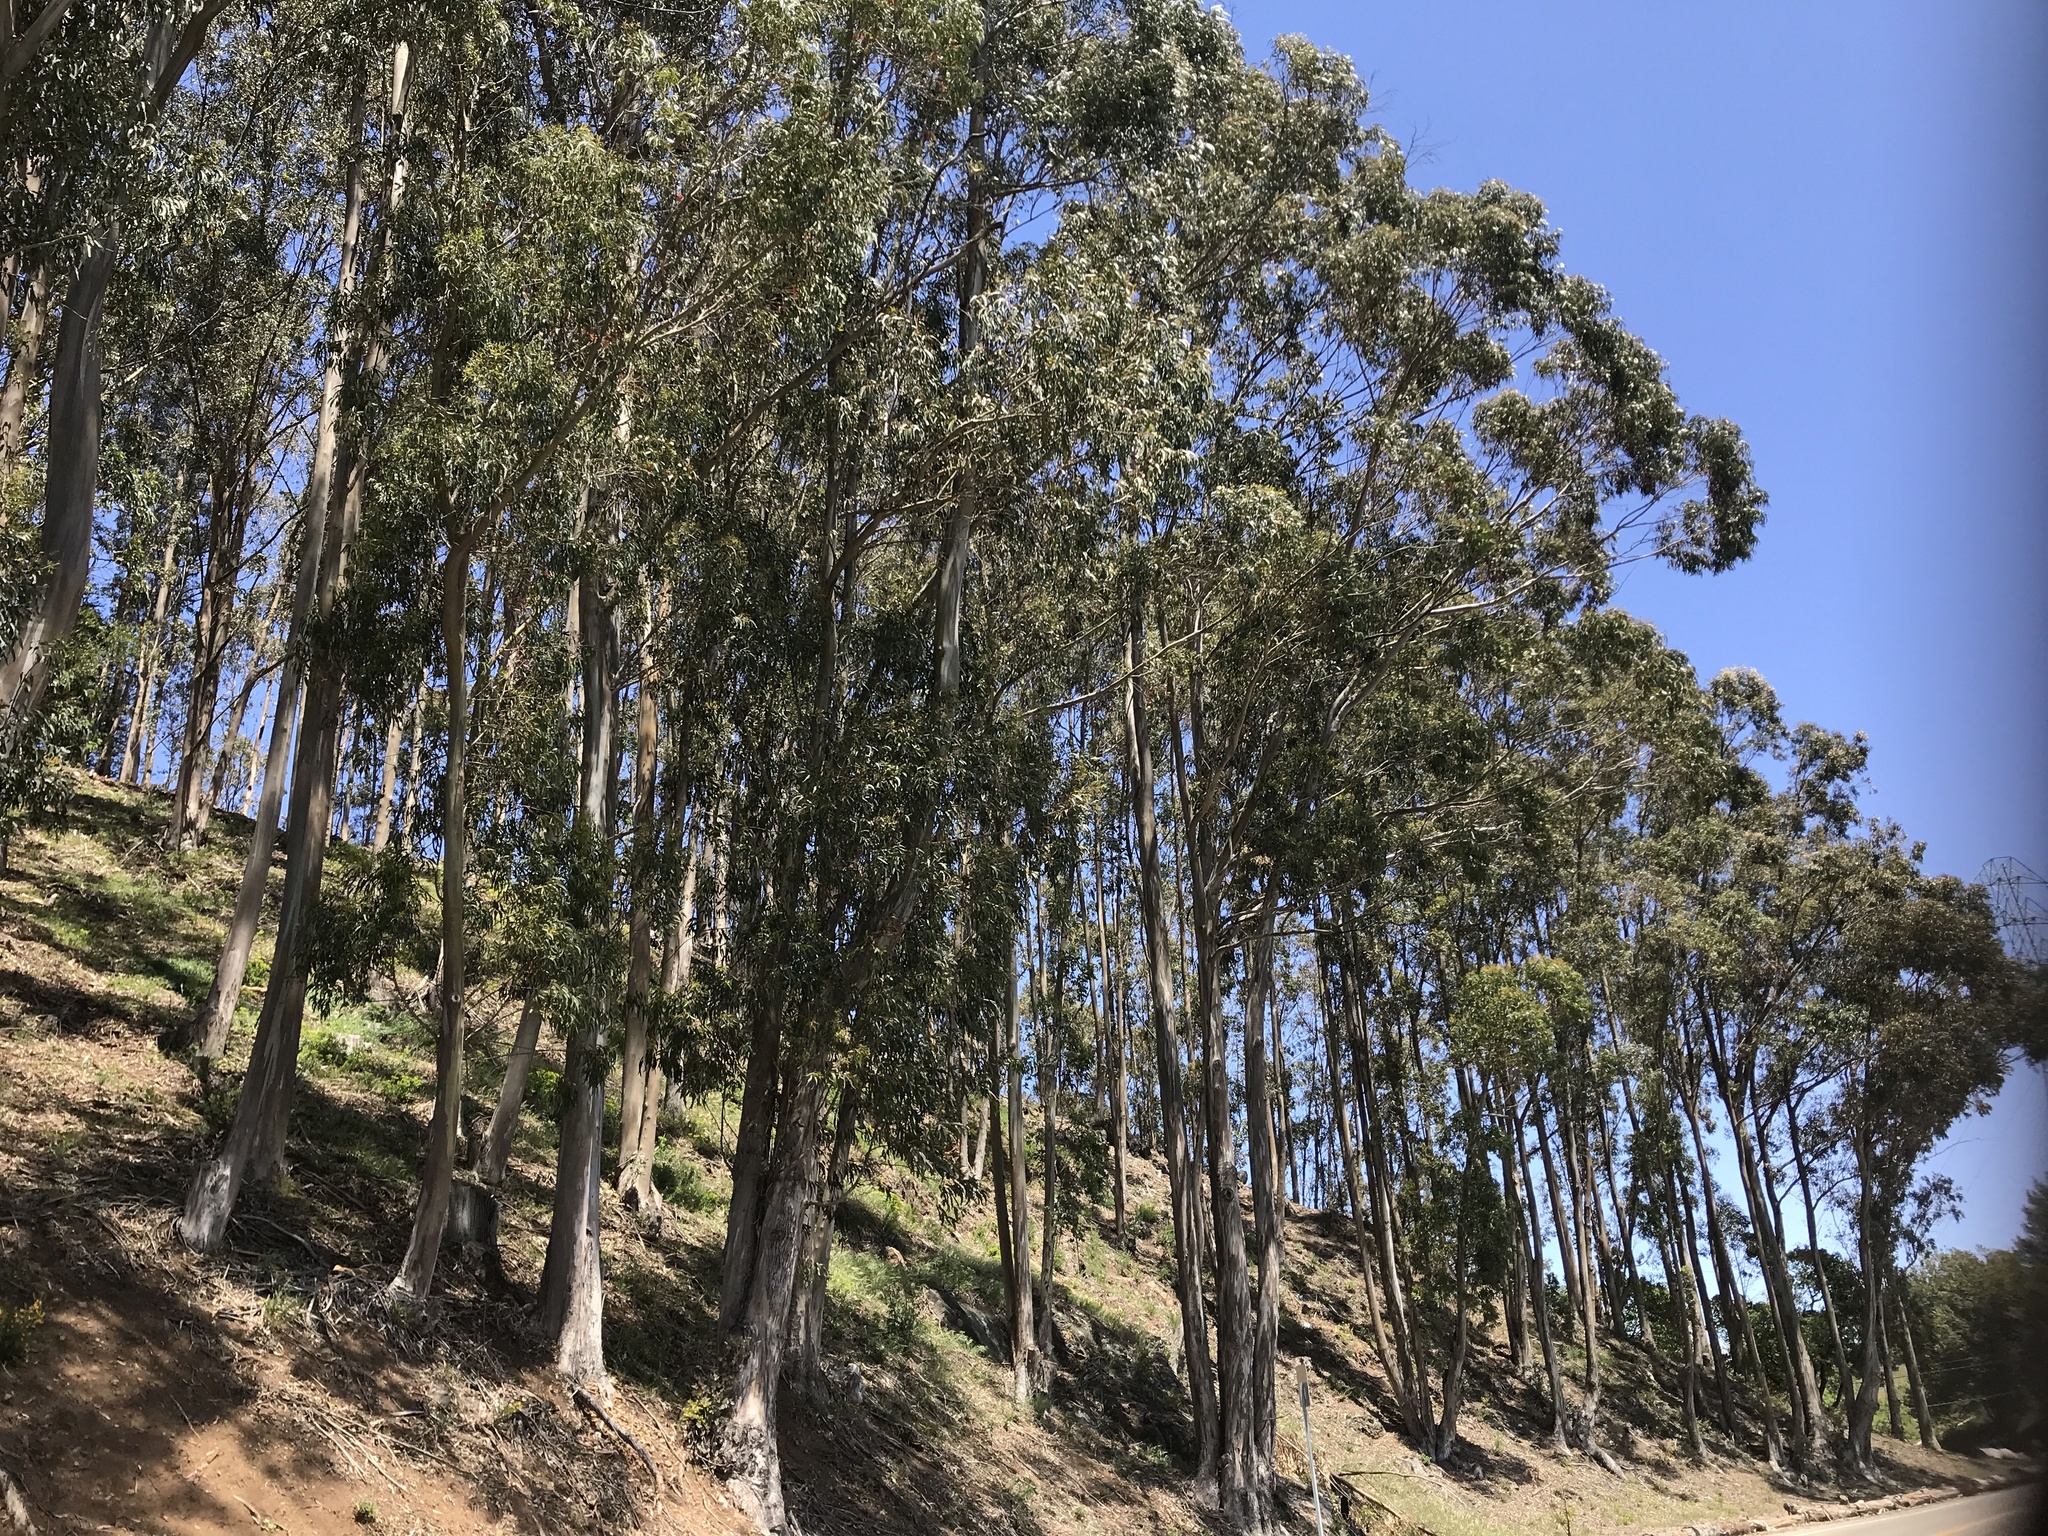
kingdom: Plantae
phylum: Tracheophyta
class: Magnoliopsida
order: Myrtales
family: Myrtaceae
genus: Eucalyptus
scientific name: Eucalyptus globulus
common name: Southern blue-gum
